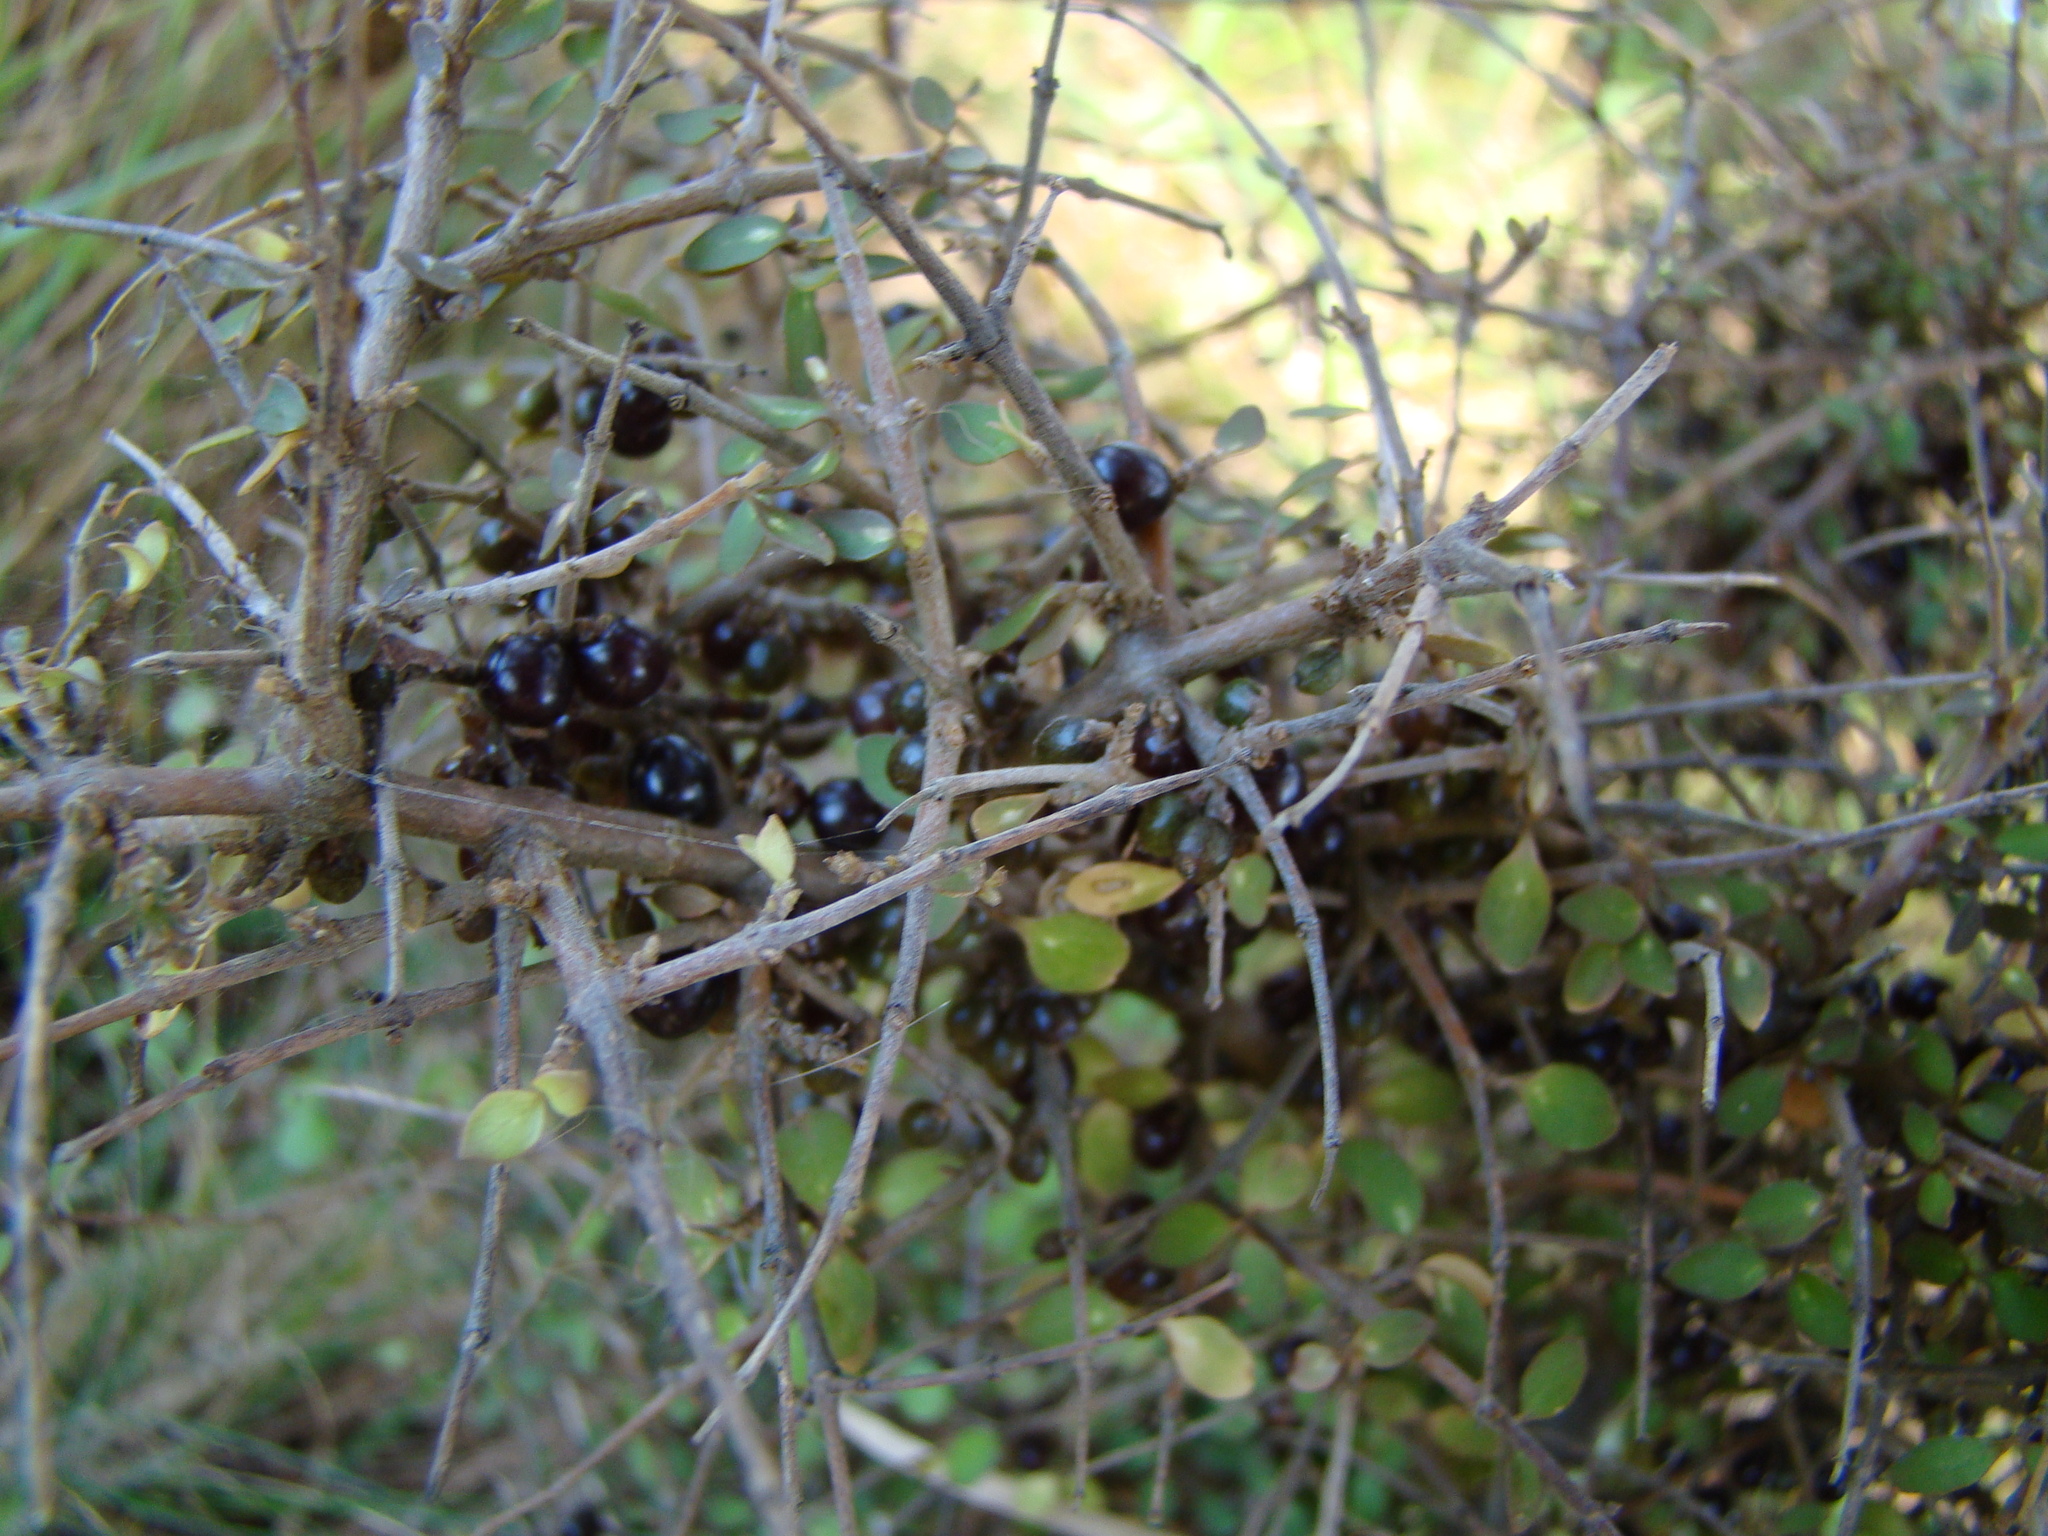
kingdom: Plantae
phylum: Tracheophyta
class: Magnoliopsida
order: Gentianales
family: Rubiaceae
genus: Coprosma
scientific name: Coprosma rhamnoides
